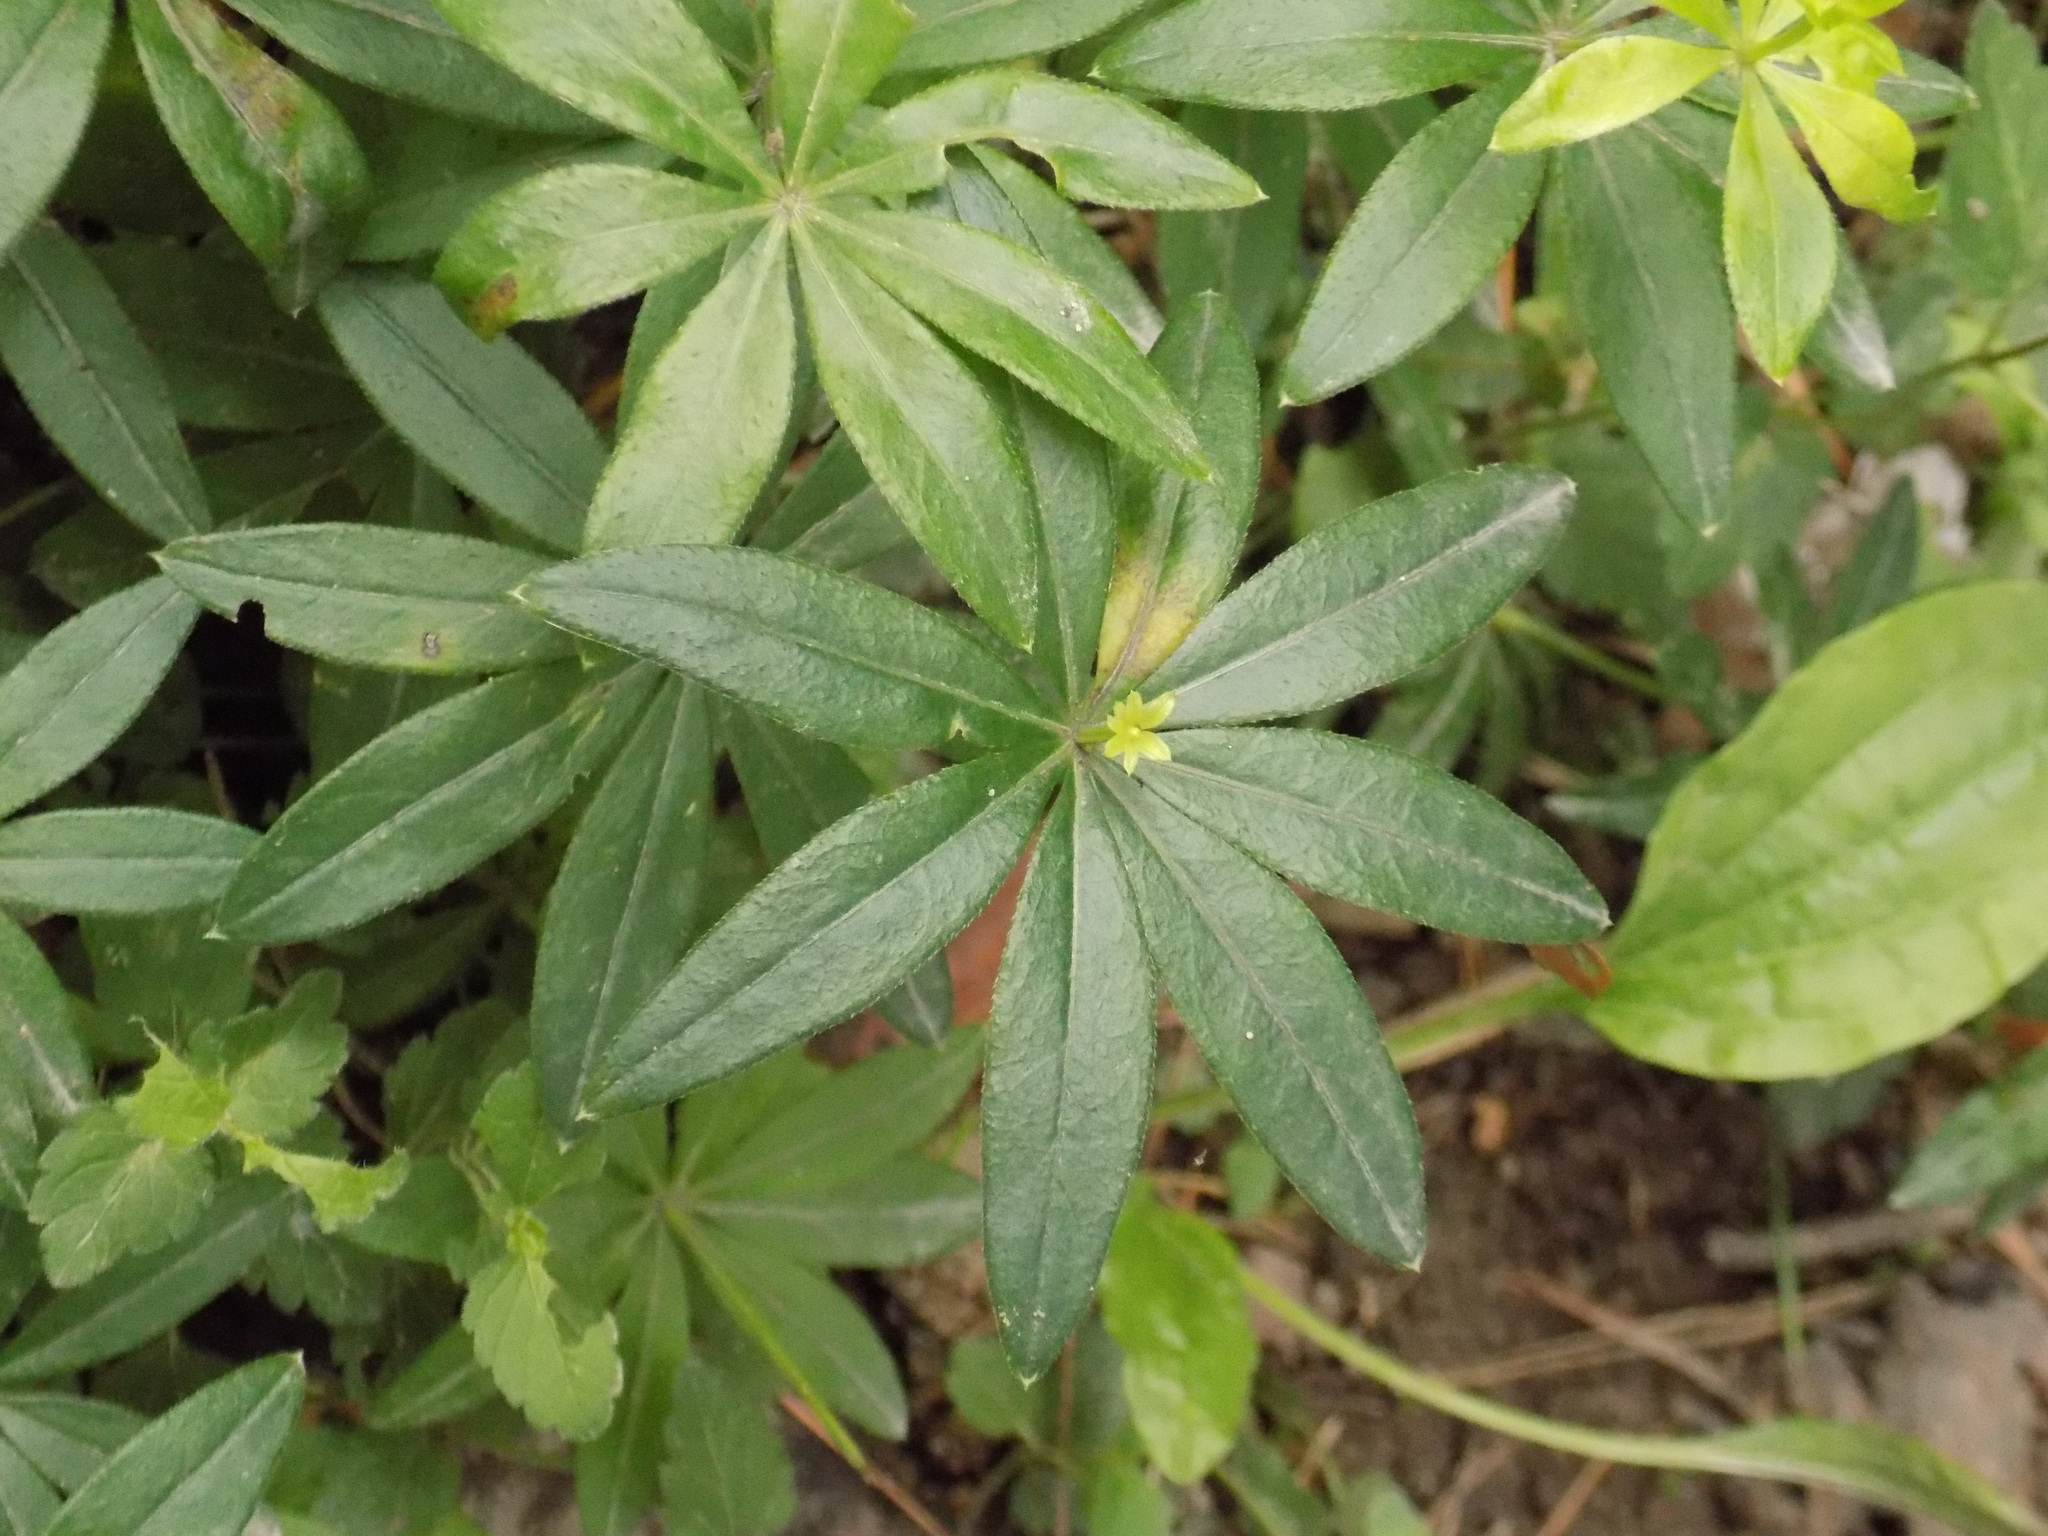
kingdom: Plantae
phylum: Tracheophyta
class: Magnoliopsida
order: Gentianales
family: Rubiaceae
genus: Galium
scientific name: Galium odoratum
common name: Sweet woodruff
